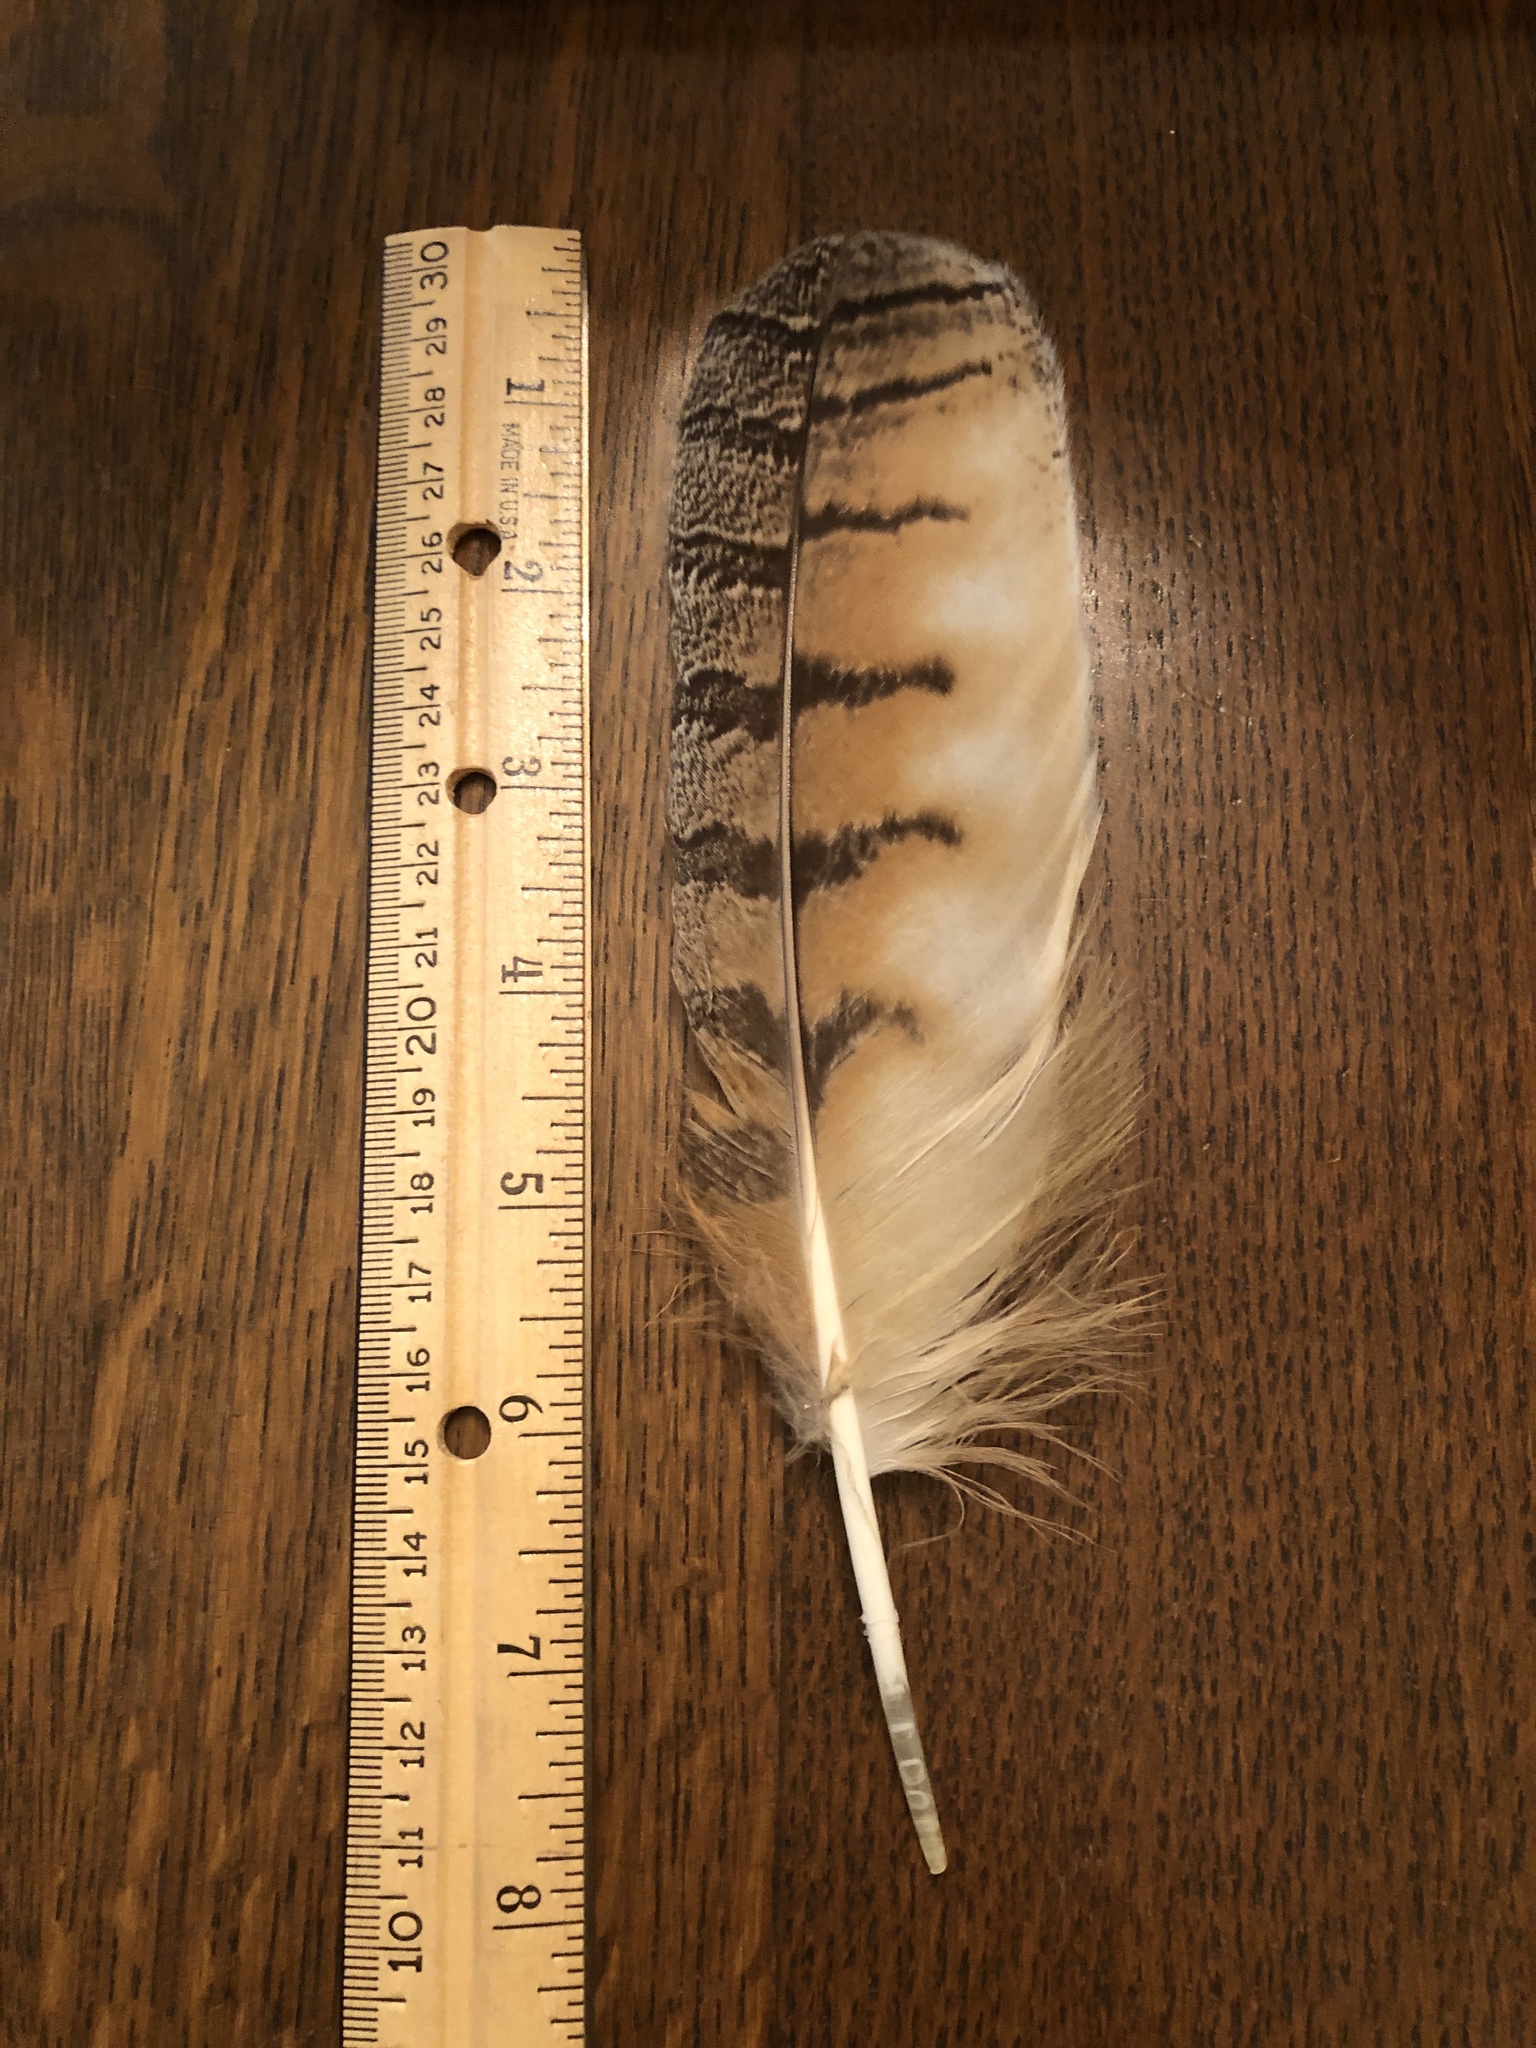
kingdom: Animalia
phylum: Chordata
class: Aves
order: Strigiformes
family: Strigidae
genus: Bubo
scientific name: Bubo virginianus
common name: Great horned owl
